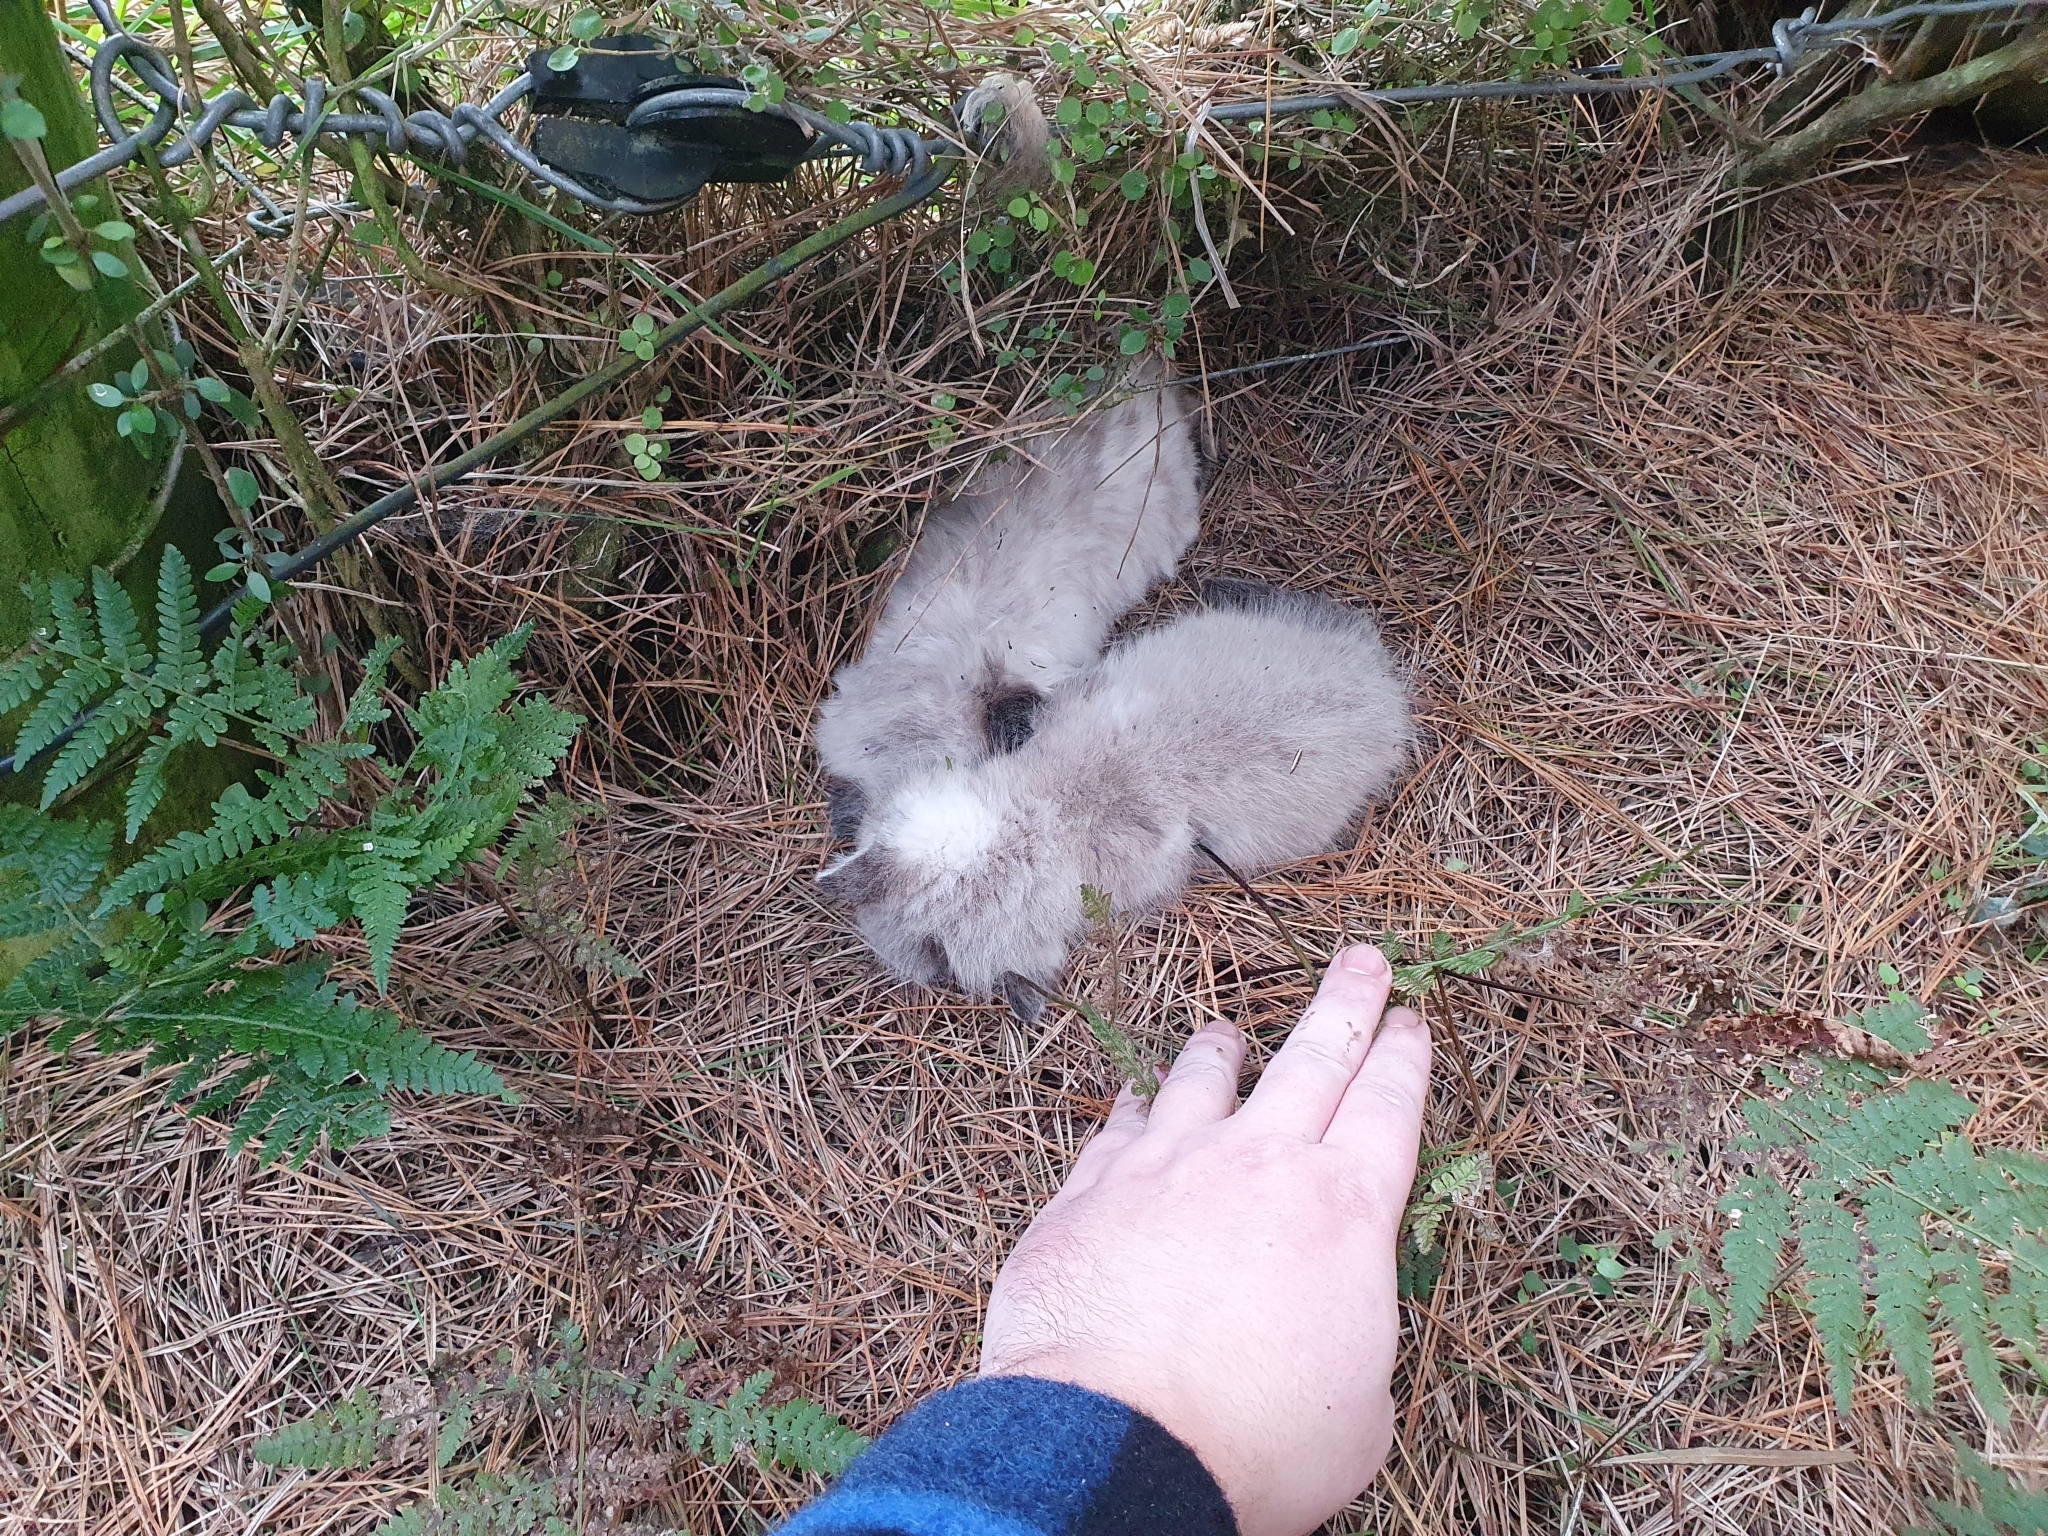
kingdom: Animalia
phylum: Chordata
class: Mammalia
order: Carnivora
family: Felidae
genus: Felis
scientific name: Felis catus
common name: Domestic cat
